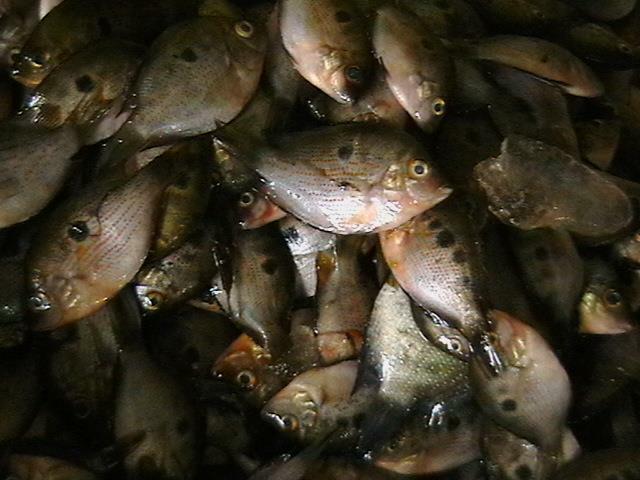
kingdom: Animalia
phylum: Chordata
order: Perciformes
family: Cichlidae
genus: Etroplus
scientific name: Etroplus maculatus
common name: Orange chromide
